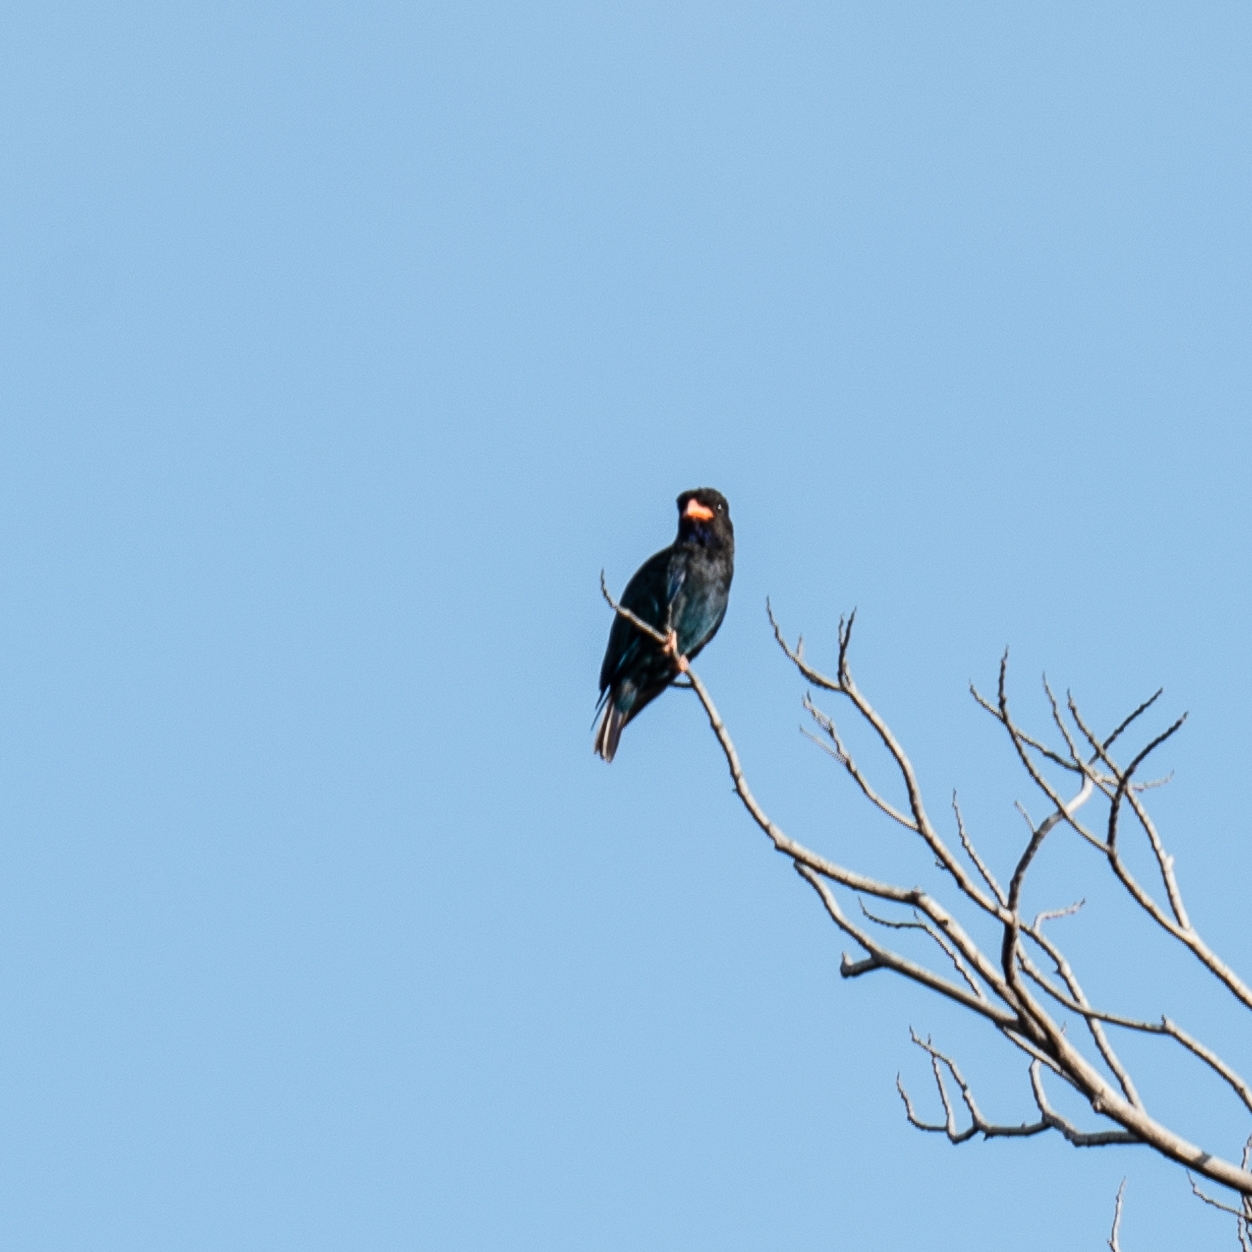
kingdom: Animalia
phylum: Chordata
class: Aves
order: Coraciiformes
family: Coraciidae
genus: Eurystomus
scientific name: Eurystomus orientalis
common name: Oriental dollarbird
